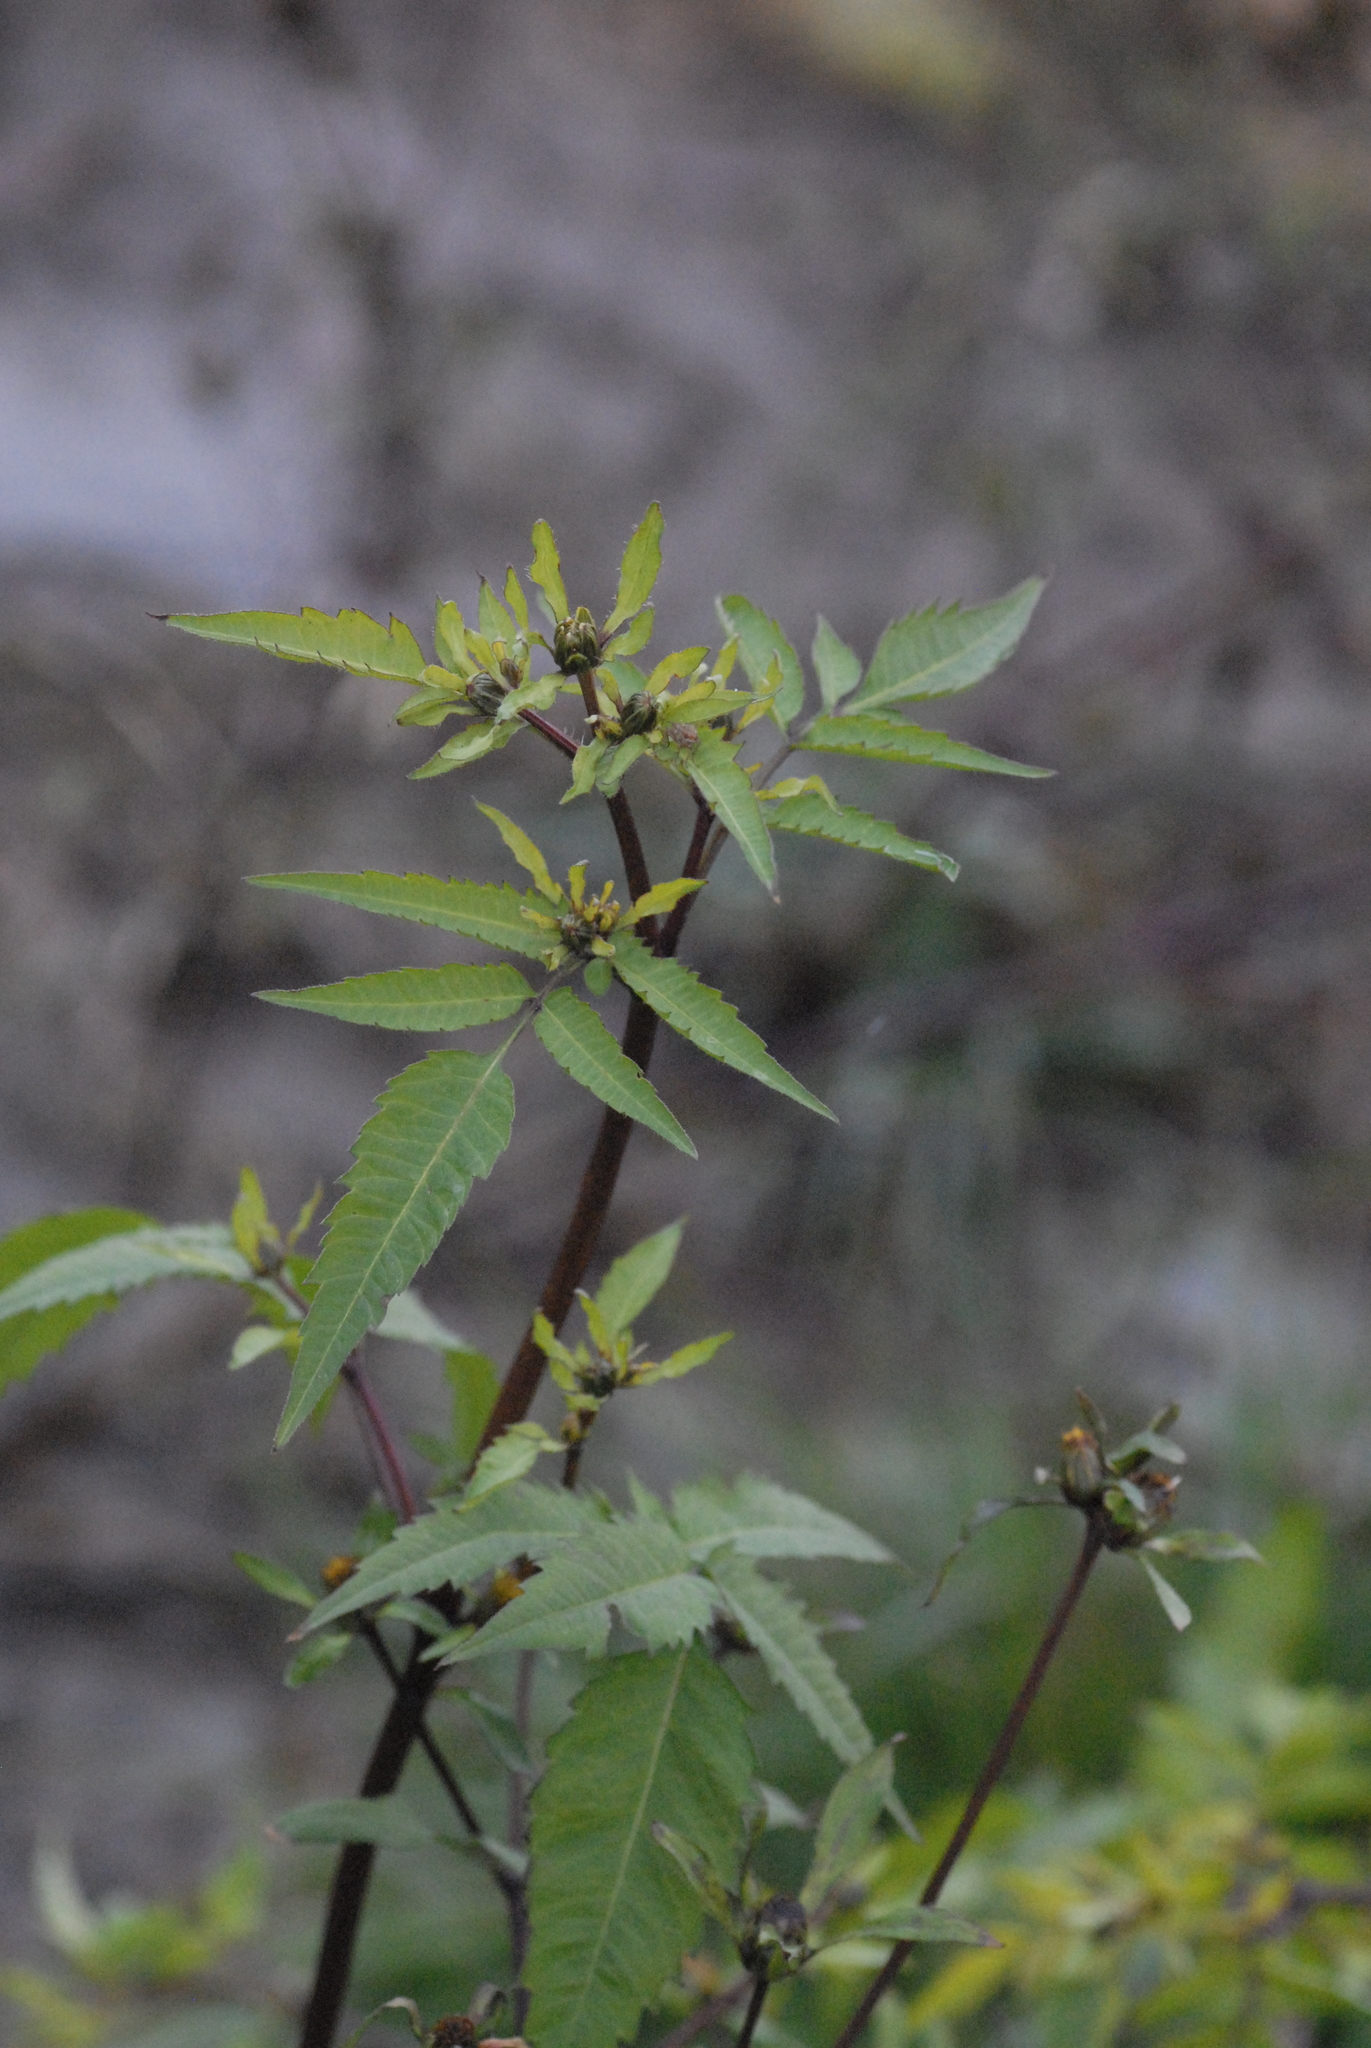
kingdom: Plantae
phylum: Tracheophyta
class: Magnoliopsida
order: Asterales
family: Asteraceae
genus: Bidens
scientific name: Bidens frondosa
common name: Beggarticks
